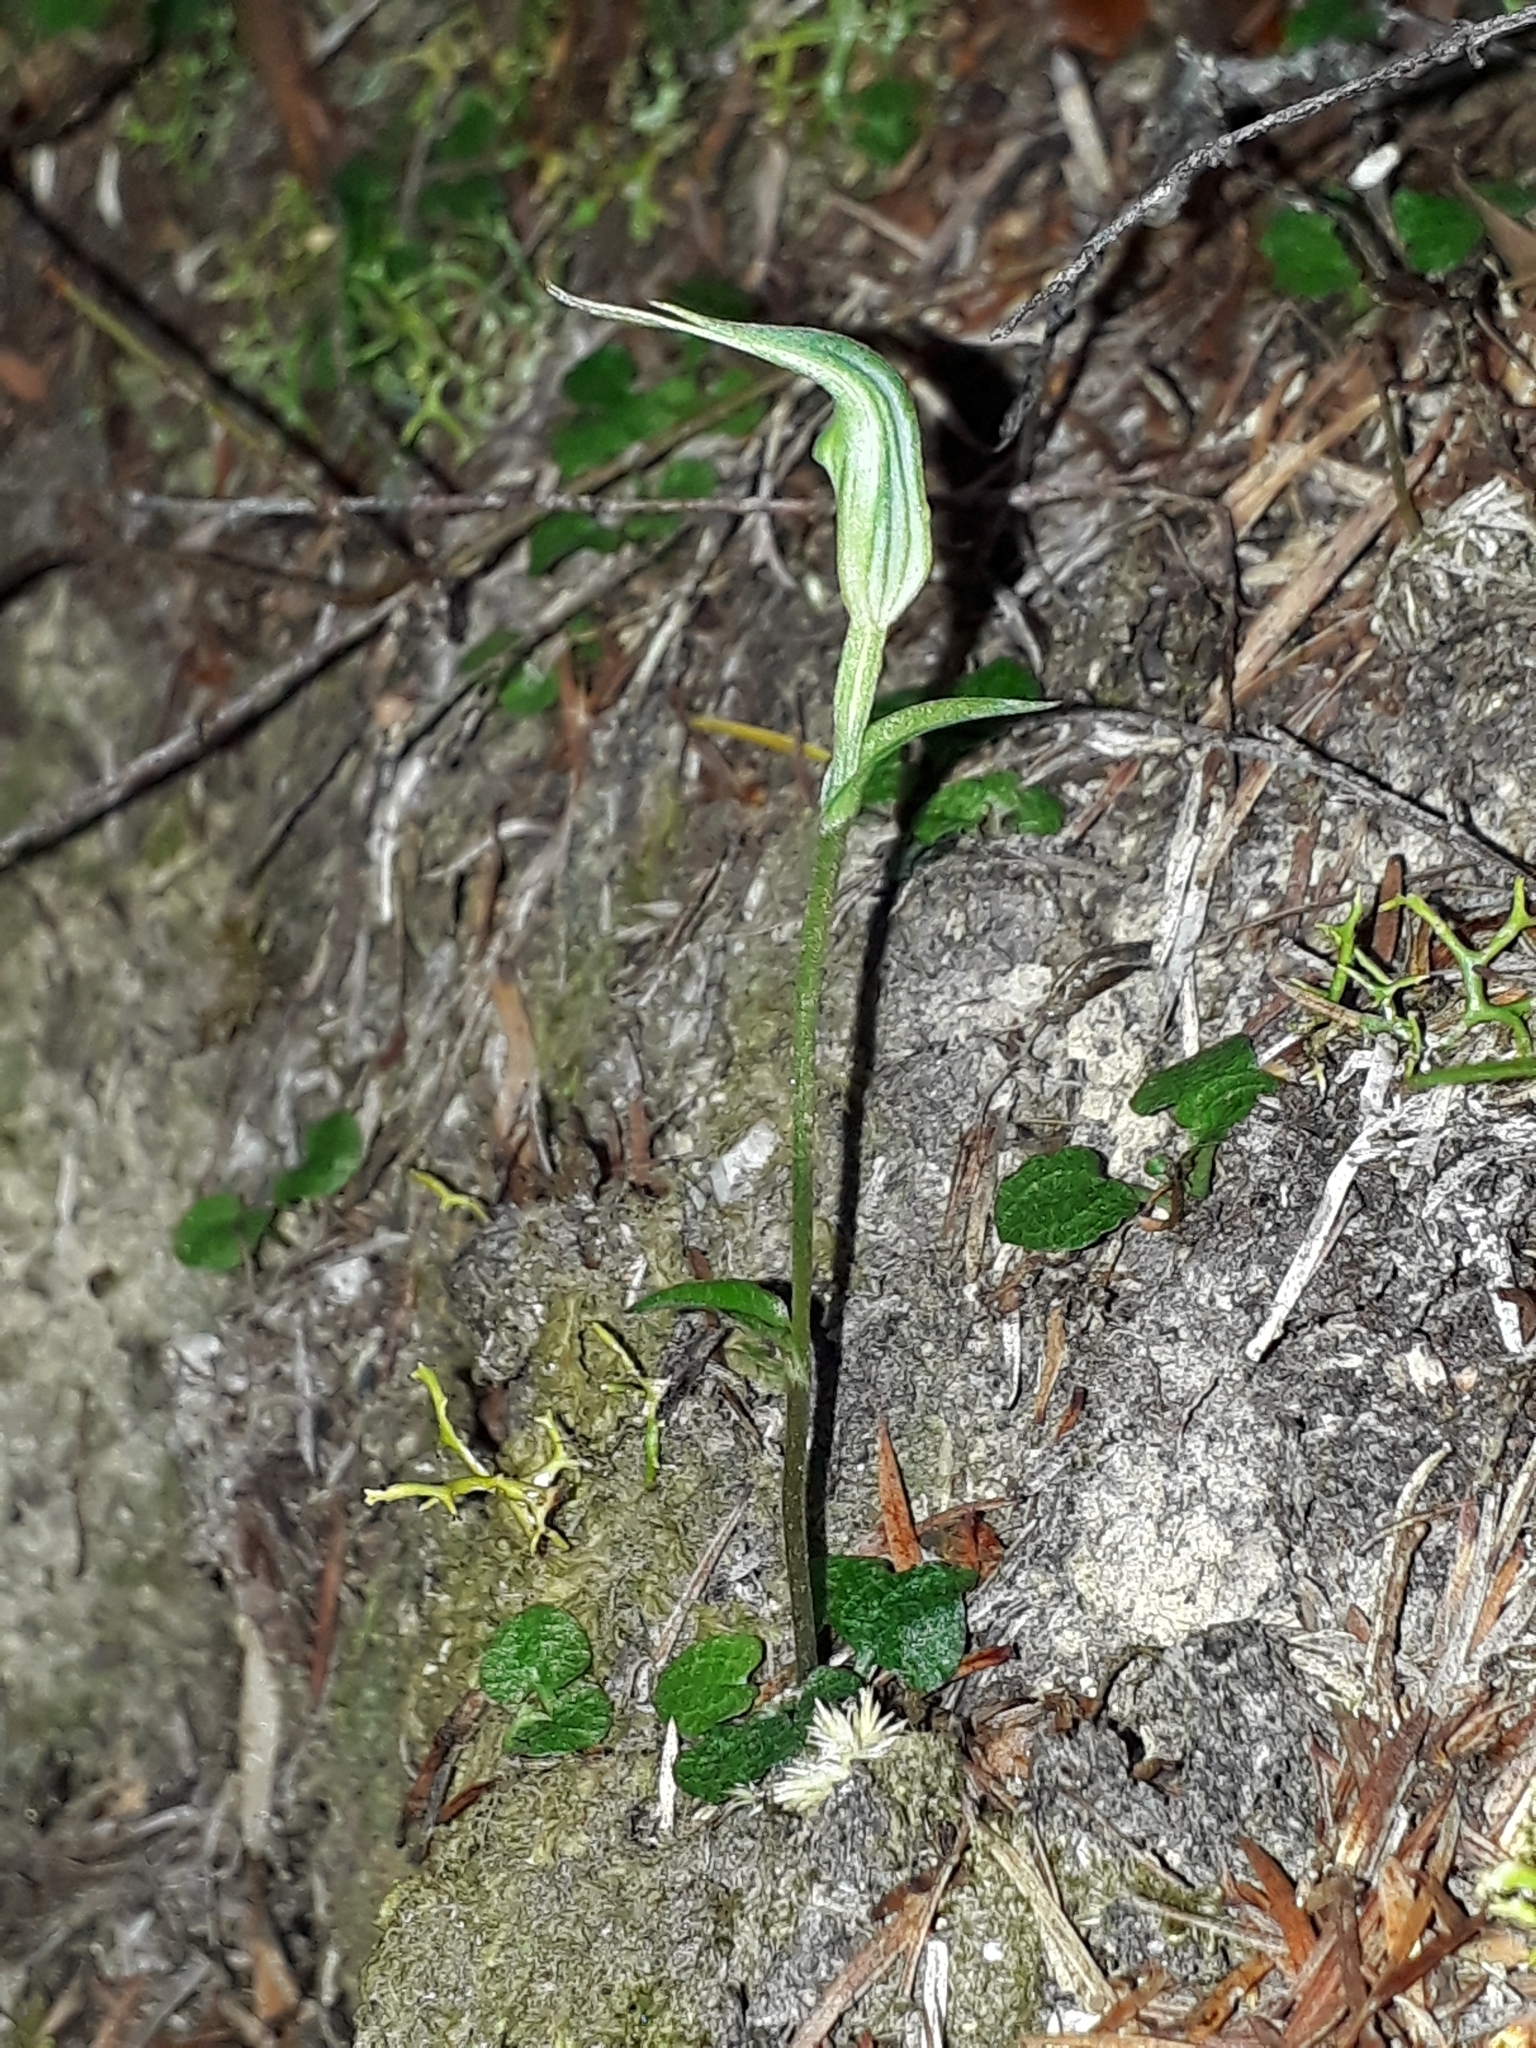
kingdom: Plantae
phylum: Tracheophyta
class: Liliopsida
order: Asparagales
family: Orchidaceae
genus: Pterostylis
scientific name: Pterostylis trullifolia
